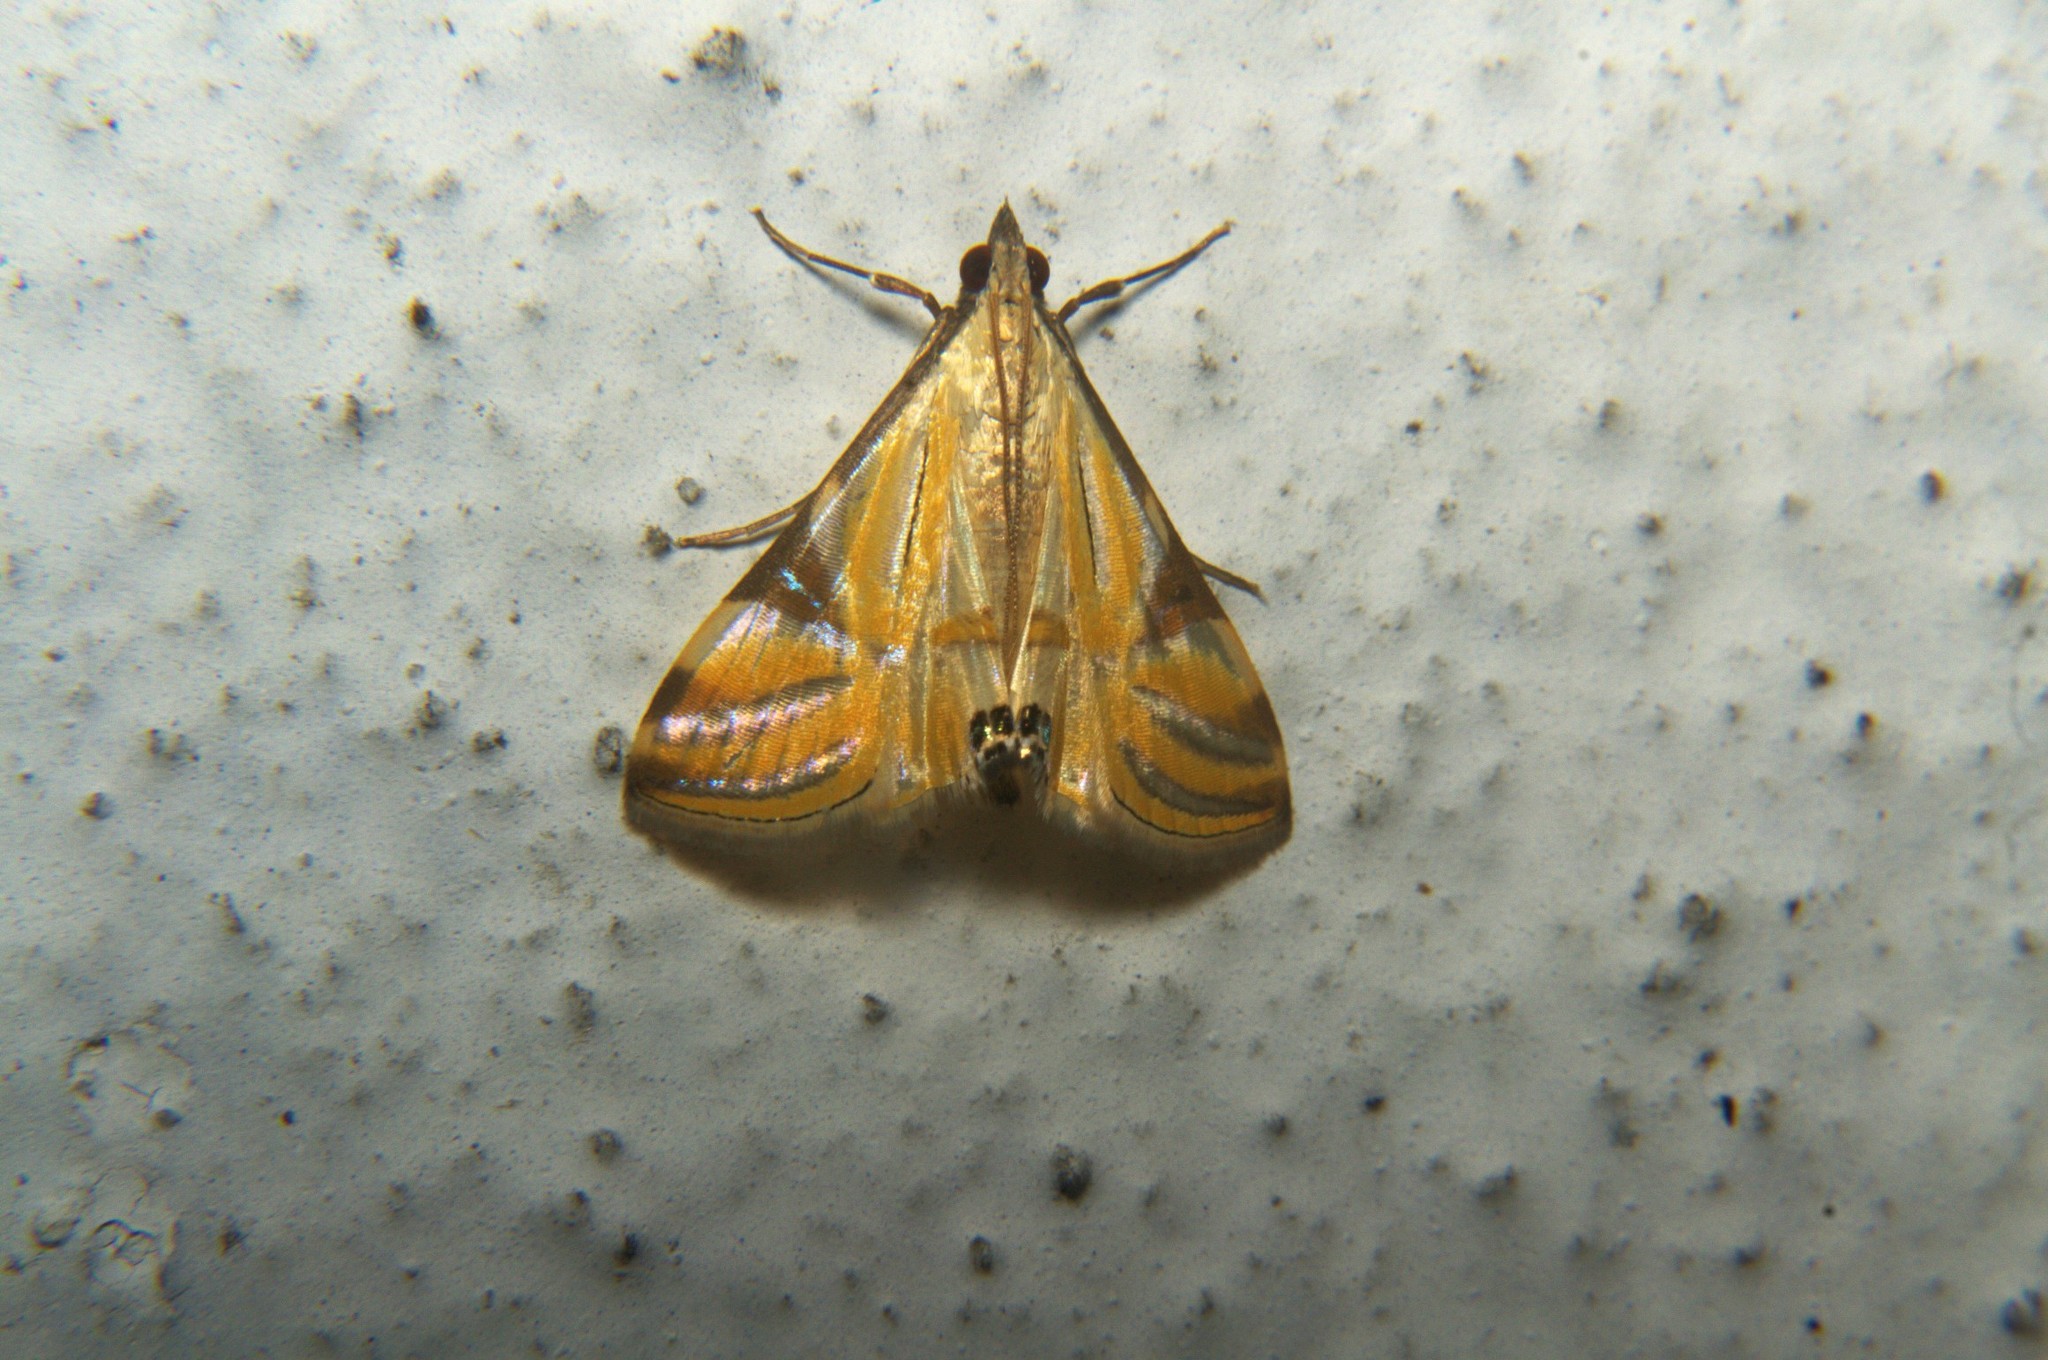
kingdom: Animalia
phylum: Arthropoda
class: Insecta
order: Lepidoptera
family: Crambidae
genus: Talanga
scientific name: Talanga sexpunctalis
